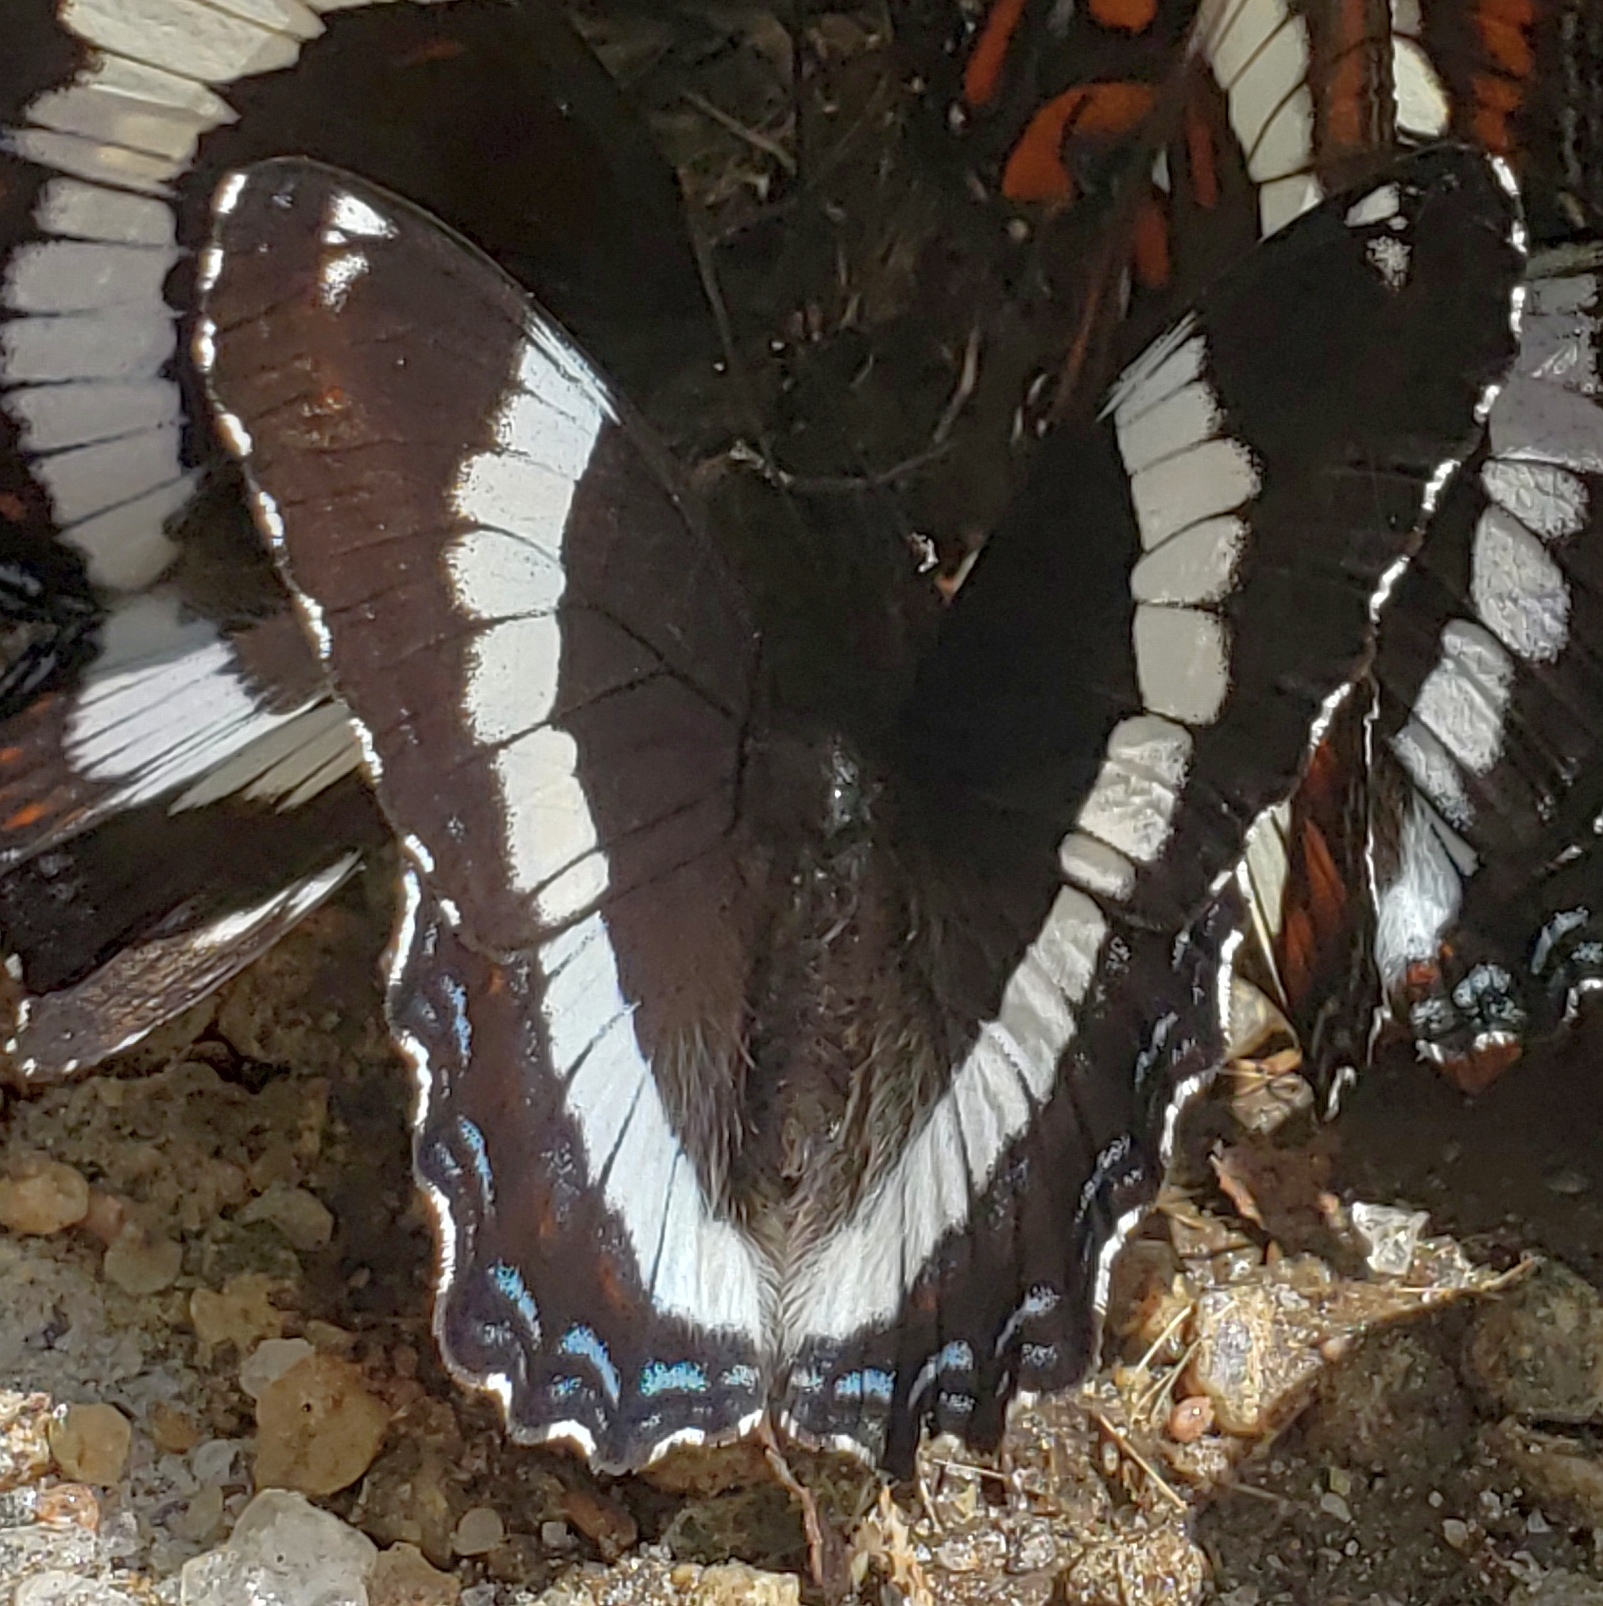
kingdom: Animalia
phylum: Arthropoda
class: Insecta
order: Lepidoptera
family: Nymphalidae
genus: Limenitis
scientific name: Limenitis arthemis
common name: Red-spotted admiral
